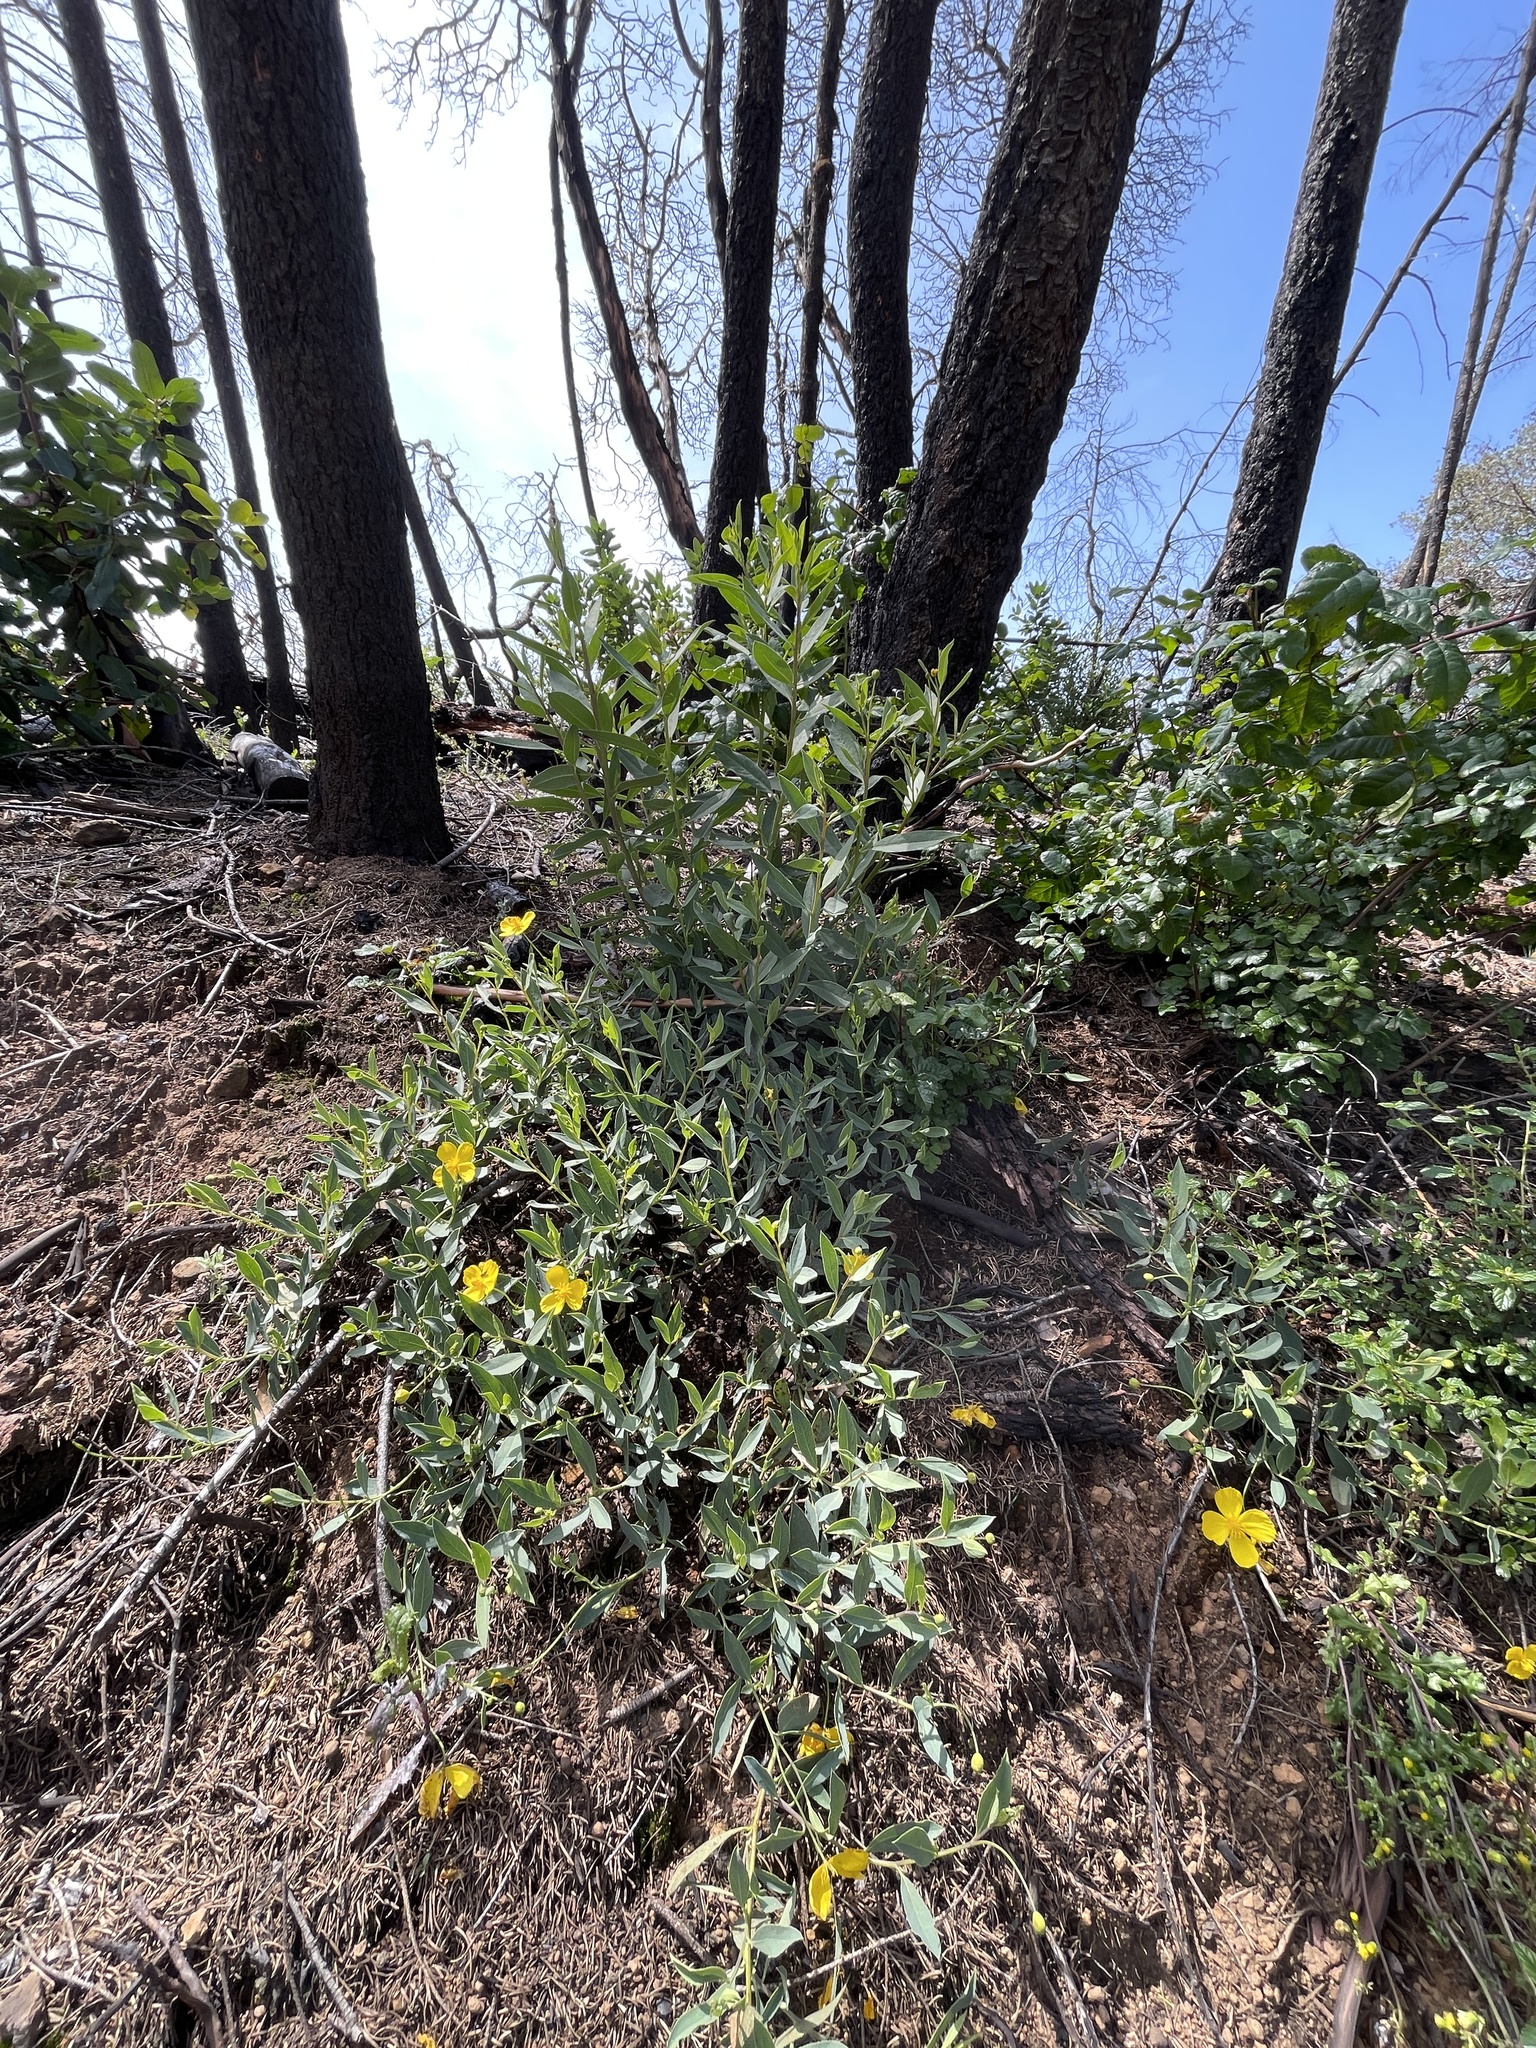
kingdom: Plantae
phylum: Tracheophyta
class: Magnoliopsida
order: Ranunculales
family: Papaveraceae
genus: Dendromecon
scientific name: Dendromecon rigida
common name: Tree poppy
